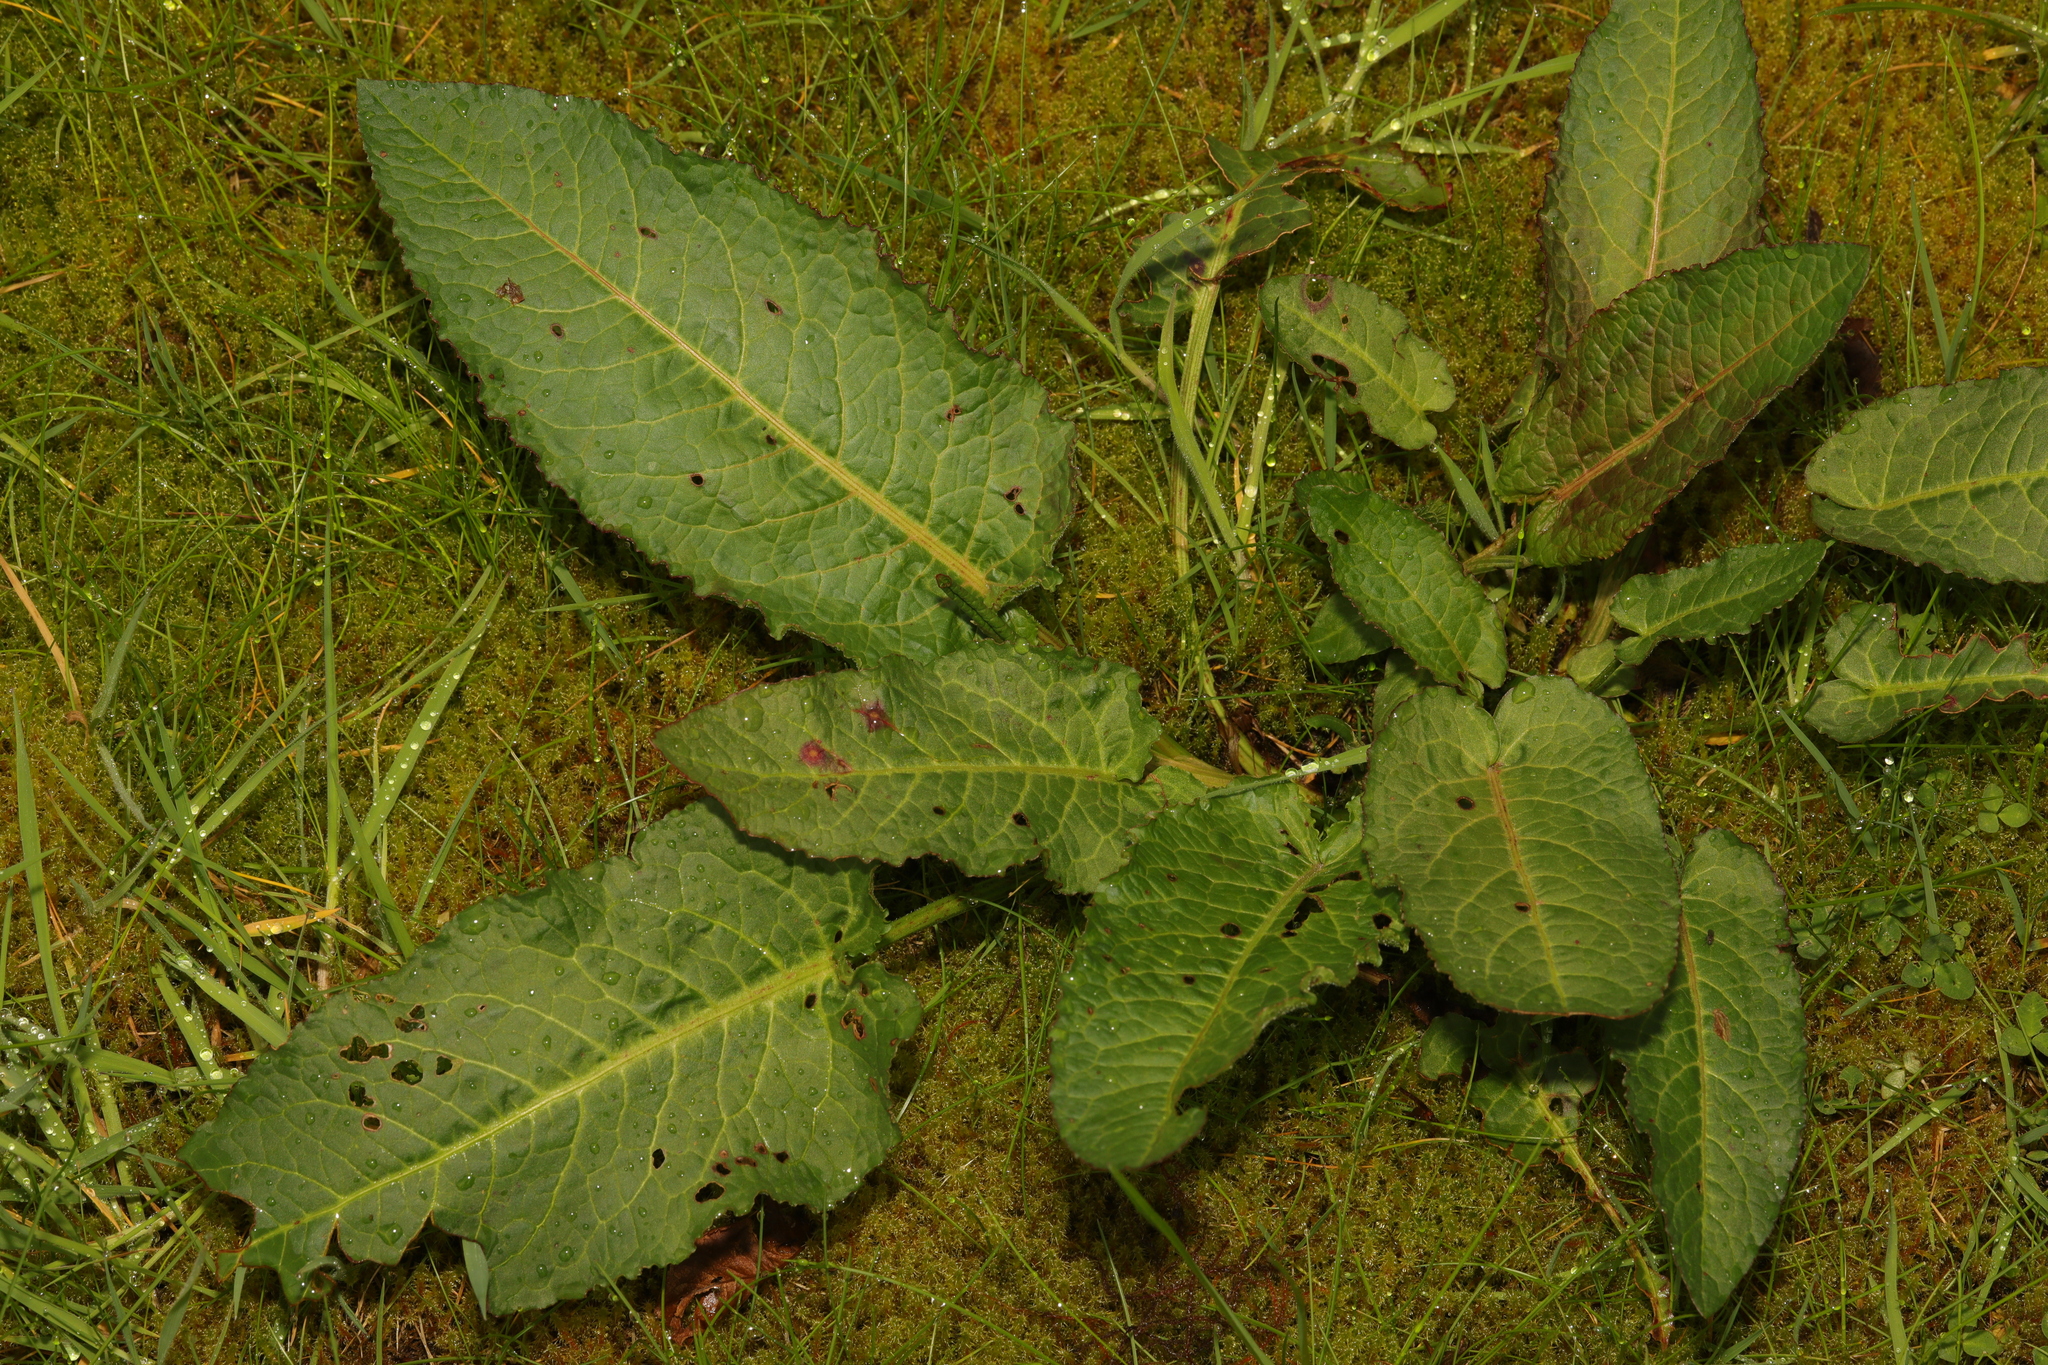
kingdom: Plantae
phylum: Tracheophyta
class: Magnoliopsida
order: Caryophyllales
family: Polygonaceae
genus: Rumex
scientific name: Rumex obtusifolius
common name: Bitter dock
